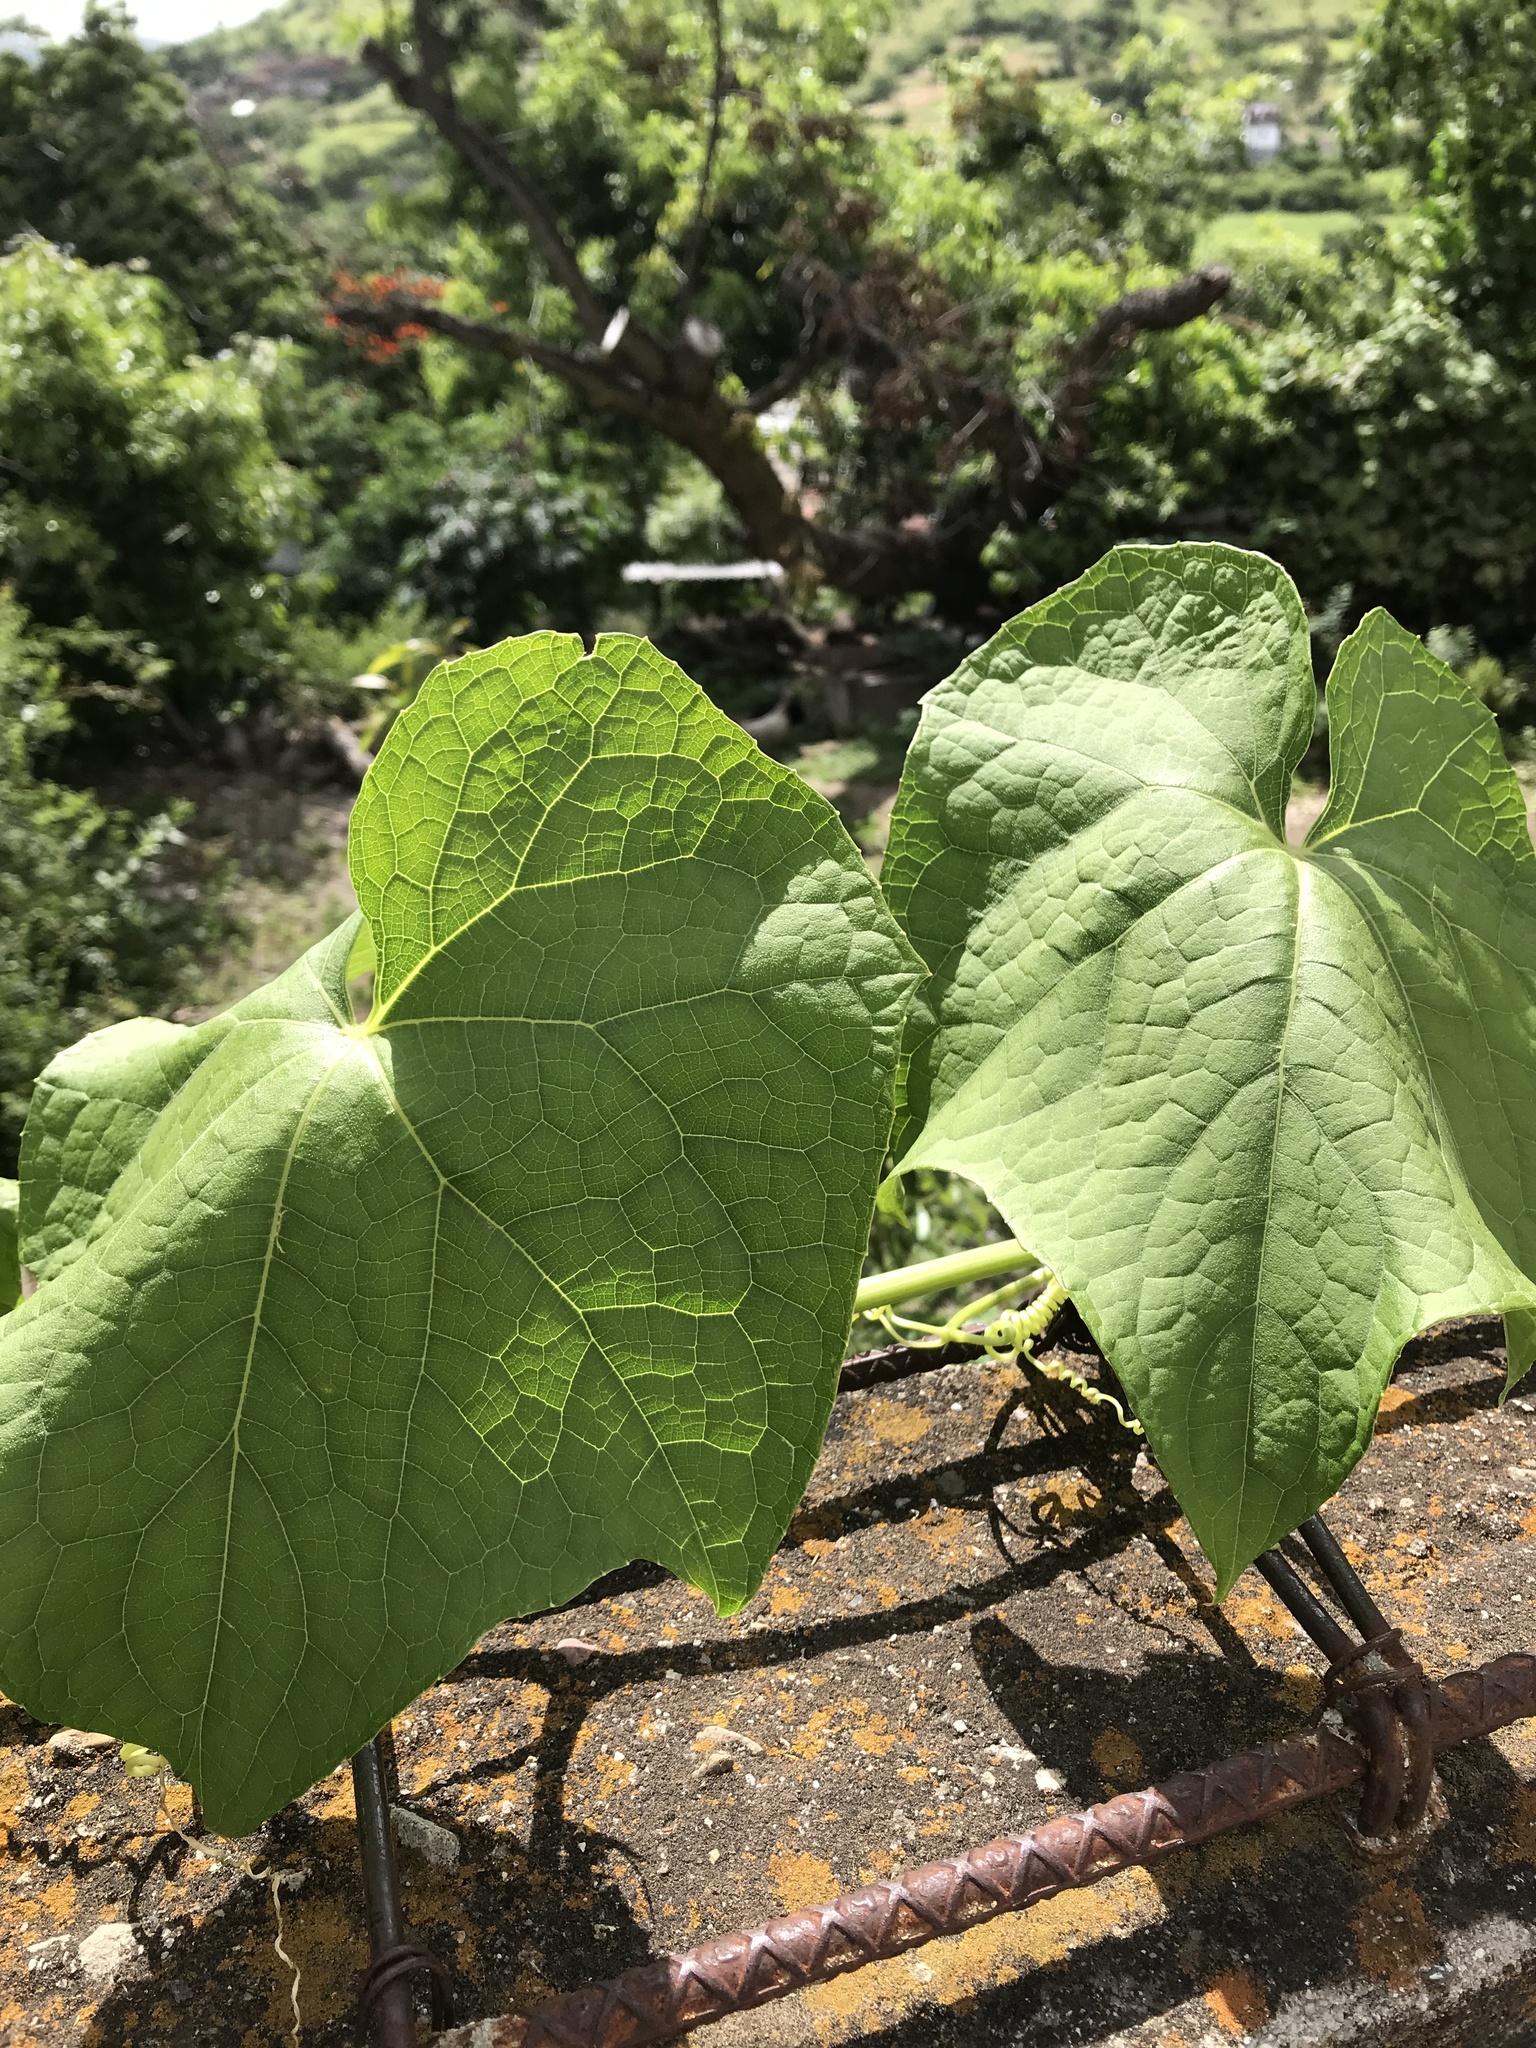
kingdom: Plantae
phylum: Tracheophyta
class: Magnoliopsida
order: Cucurbitales
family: Cucurbitaceae
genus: Sechium
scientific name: Sechium edule
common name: Chayote
